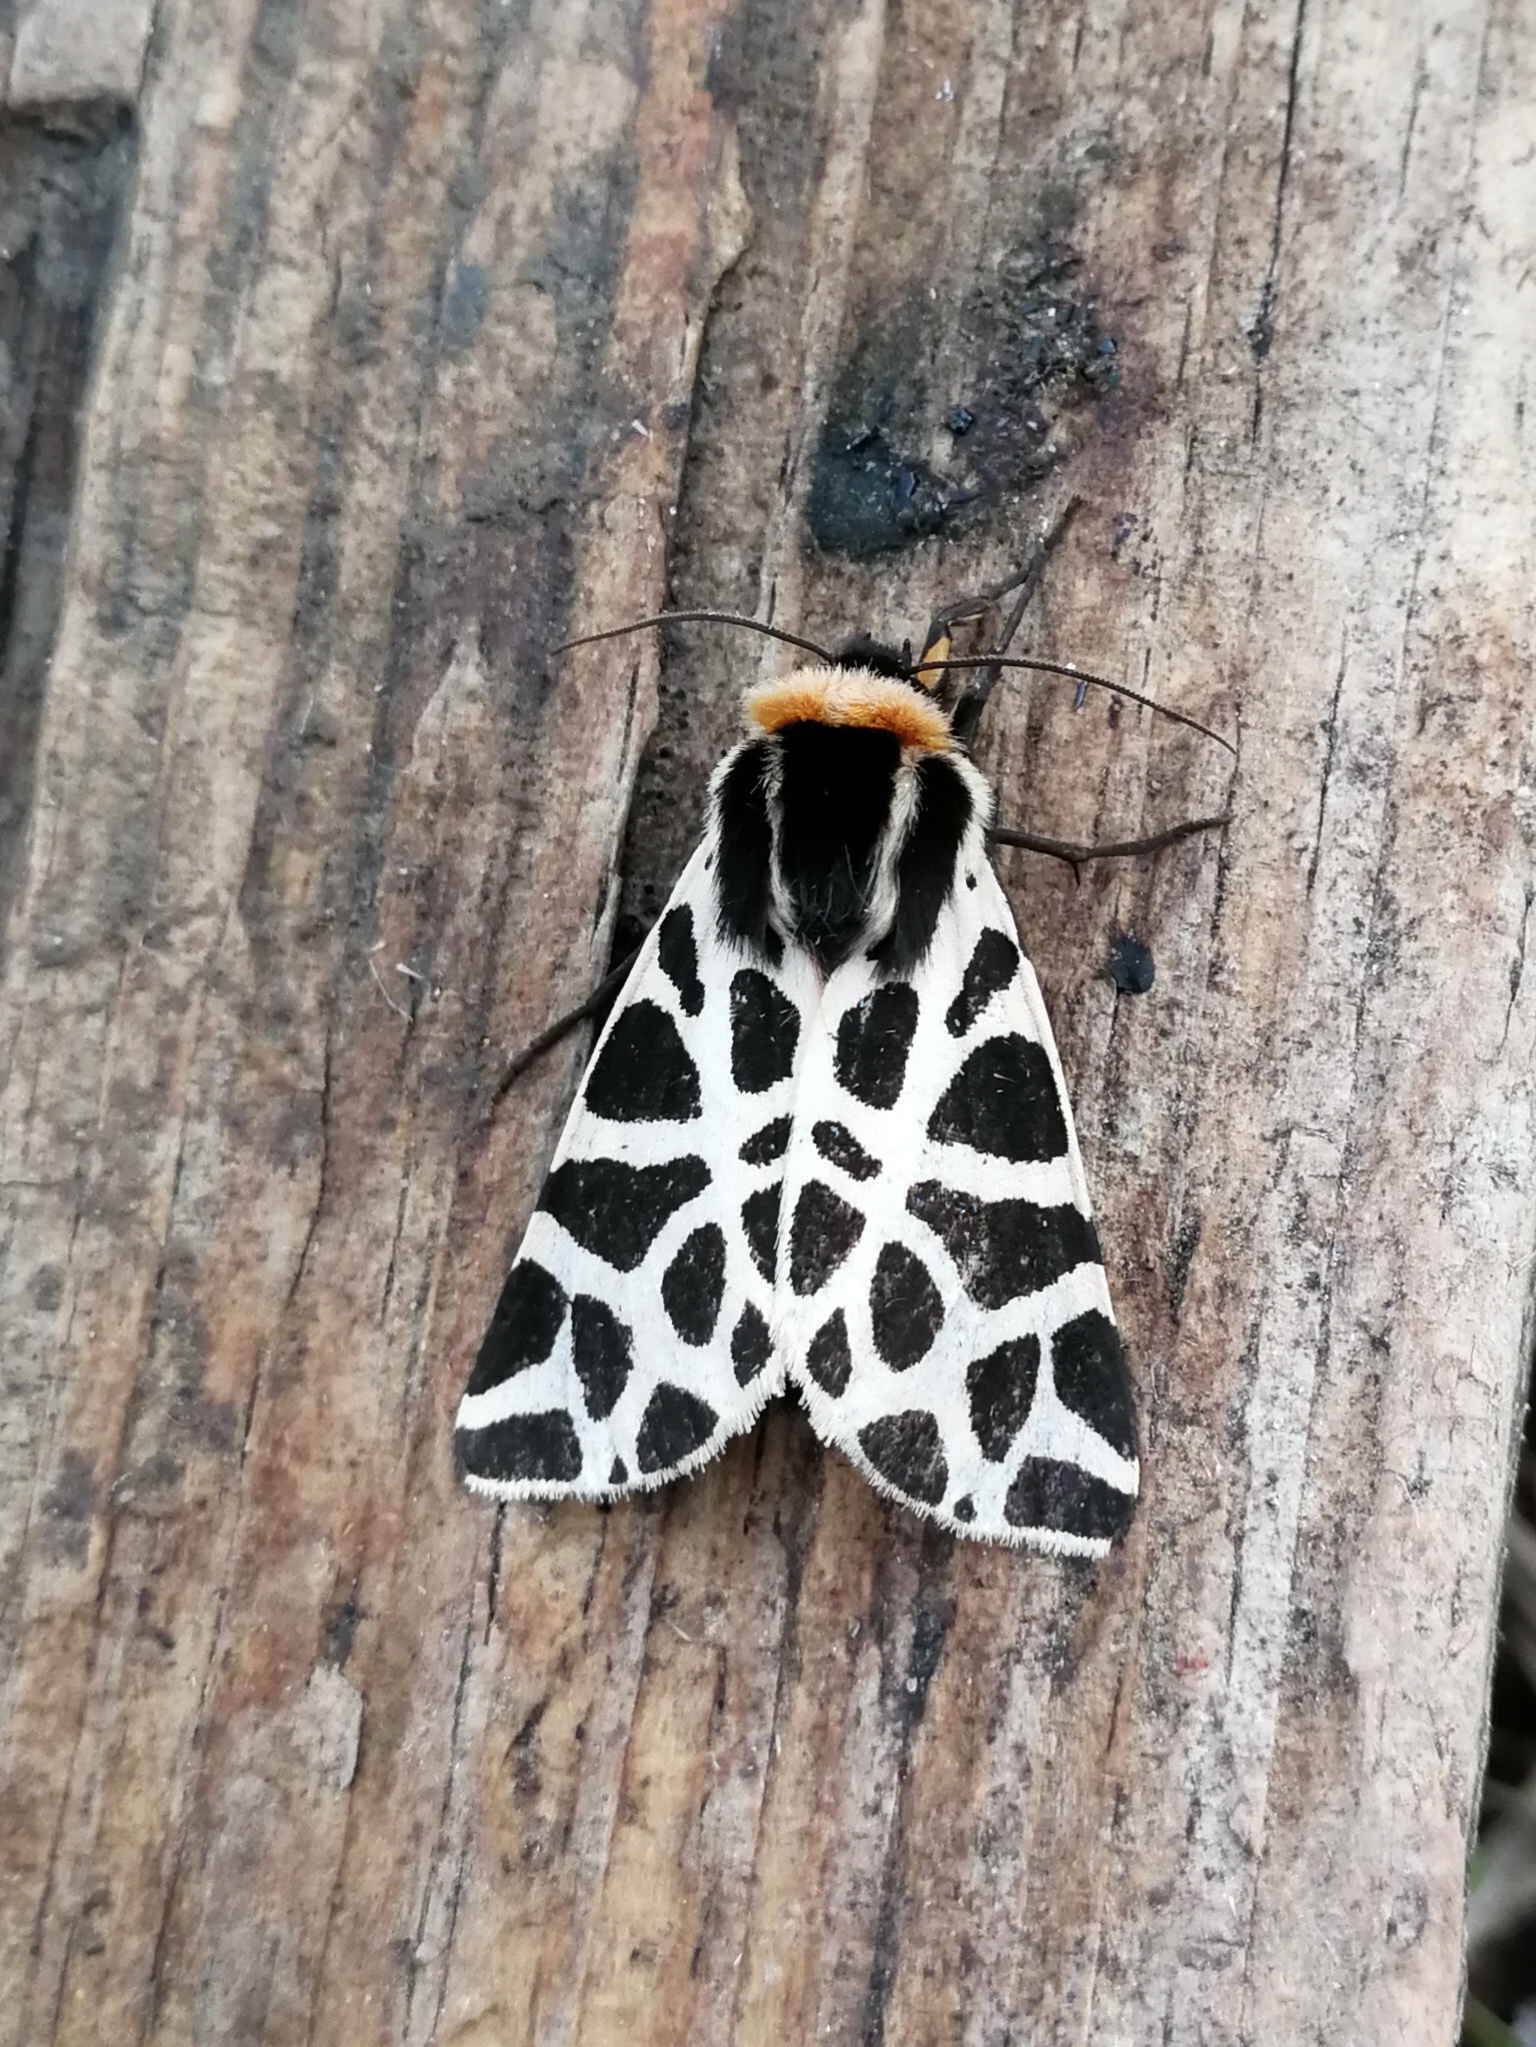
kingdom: Animalia
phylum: Arthropoda
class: Insecta
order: Lepidoptera
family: Erebidae
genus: Cymbalophora
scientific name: Cymbalophora pudica
